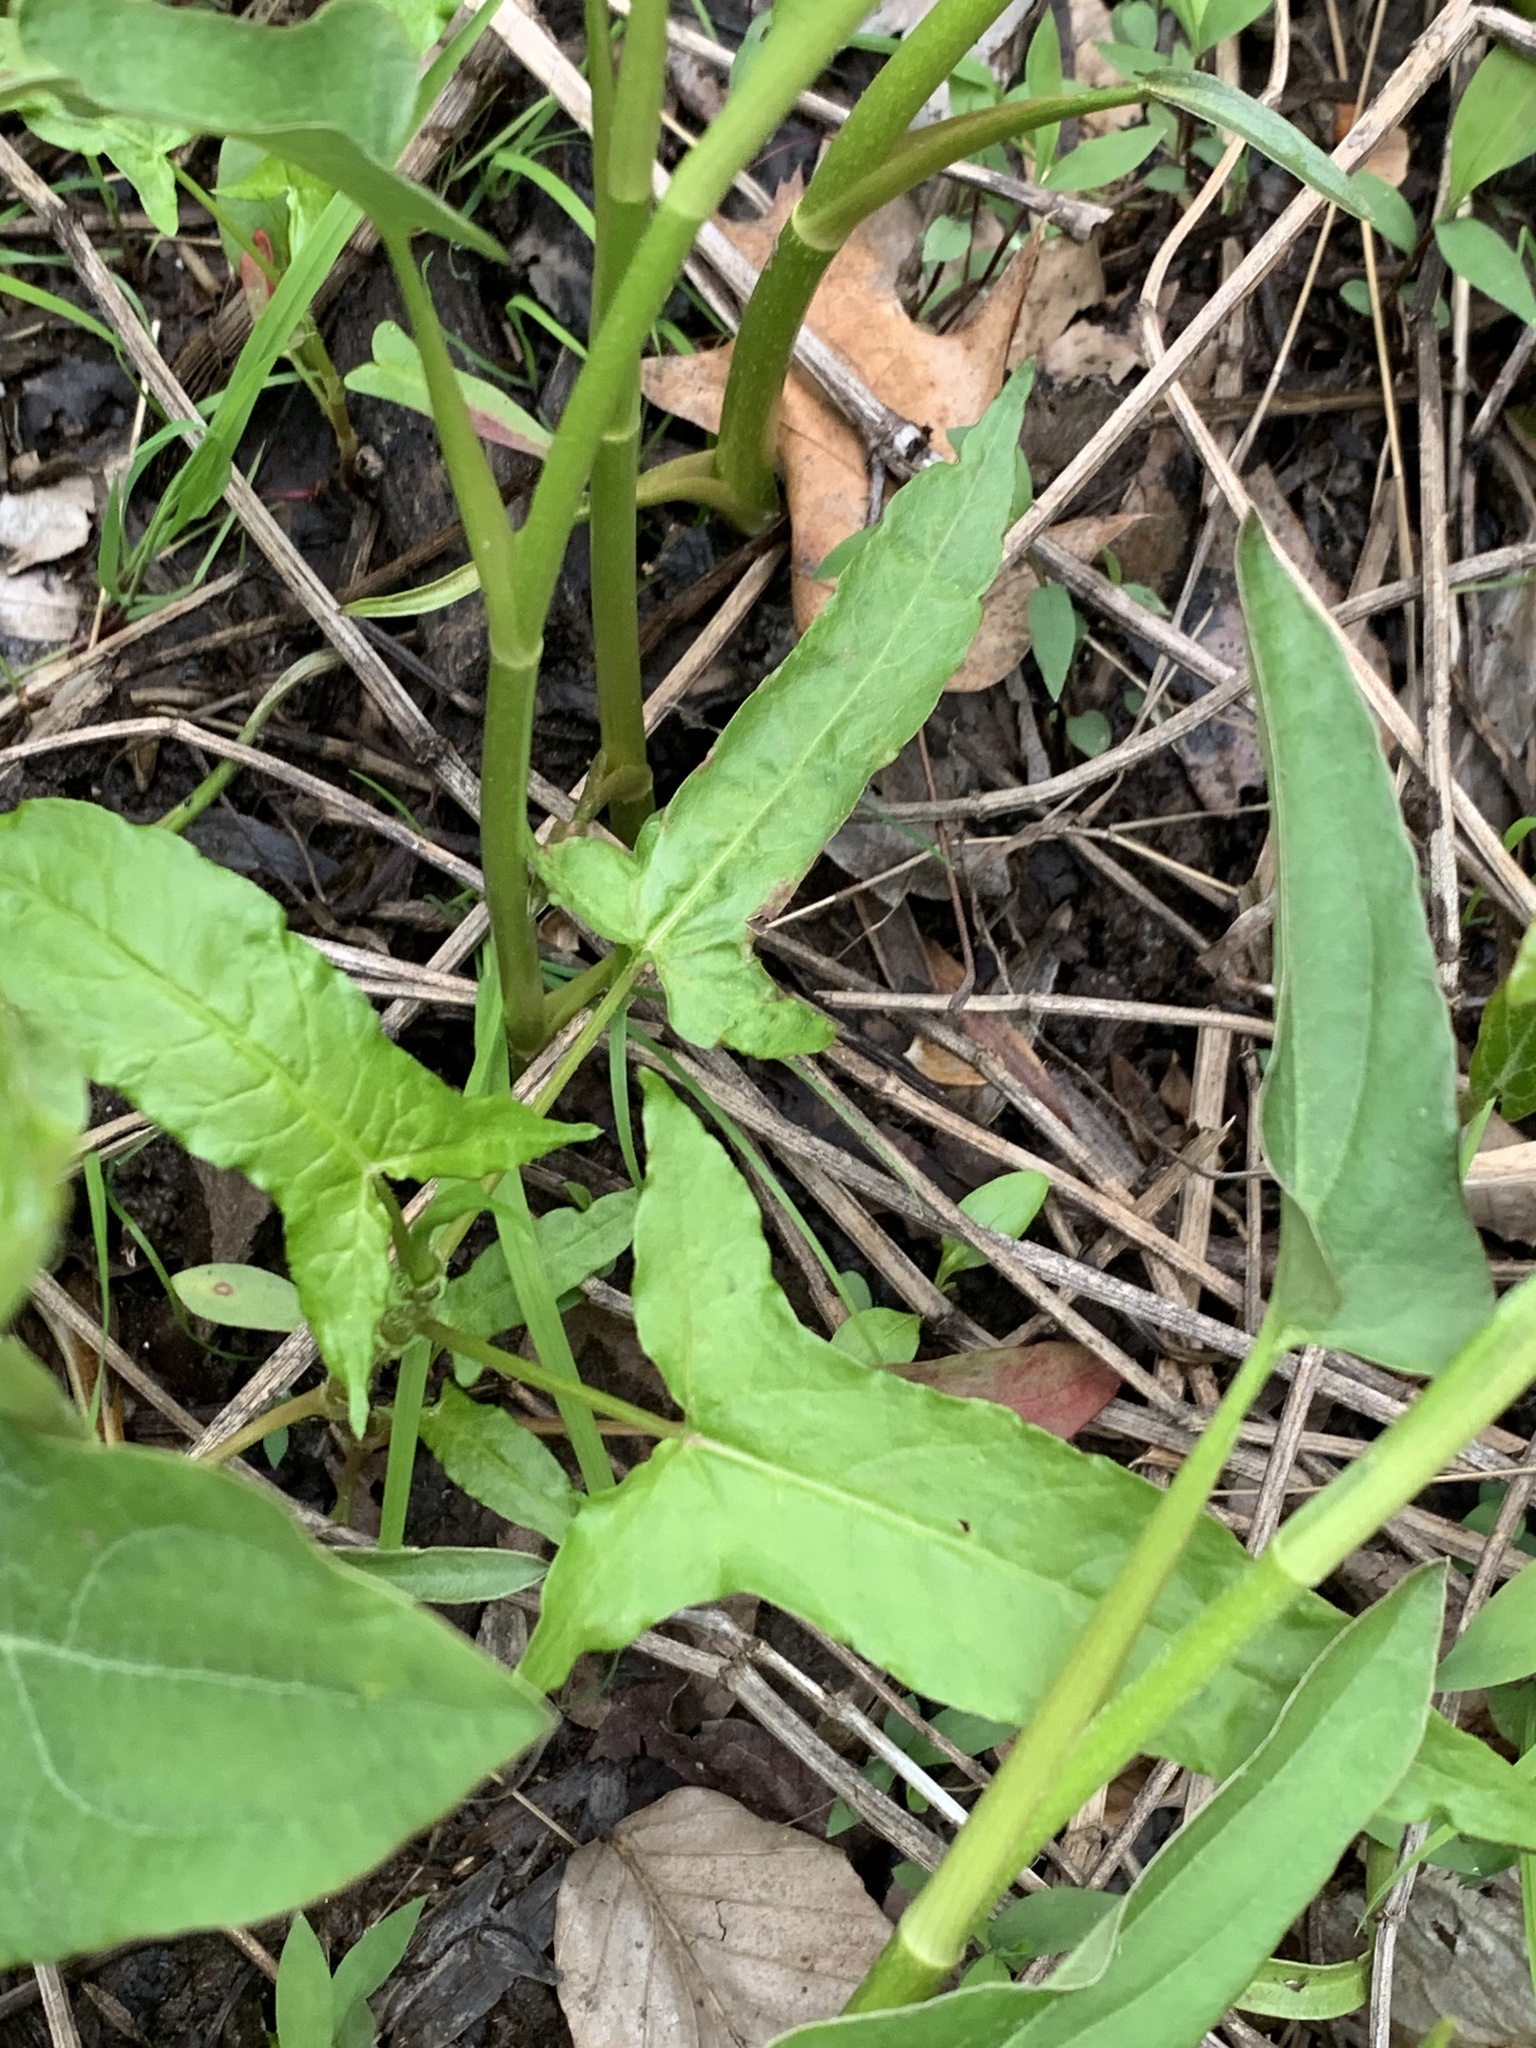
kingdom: Plantae
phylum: Tracheophyta
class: Magnoliopsida
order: Caryophyllales
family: Polygonaceae
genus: Persicaria
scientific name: Persicaria arifolia
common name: Halberd-leaved tear-thumb
